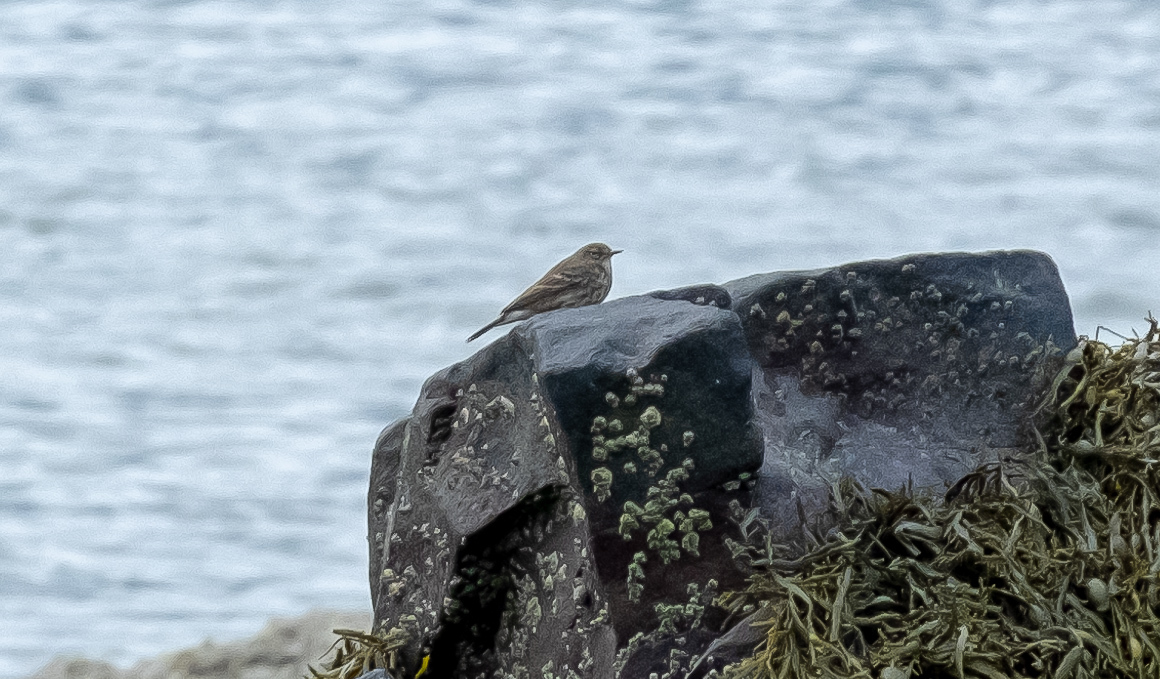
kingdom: Animalia
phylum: Chordata
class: Aves
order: Passeriformes
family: Motacillidae
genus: Anthus
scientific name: Anthus petrosus
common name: Eurasian rock pipit
